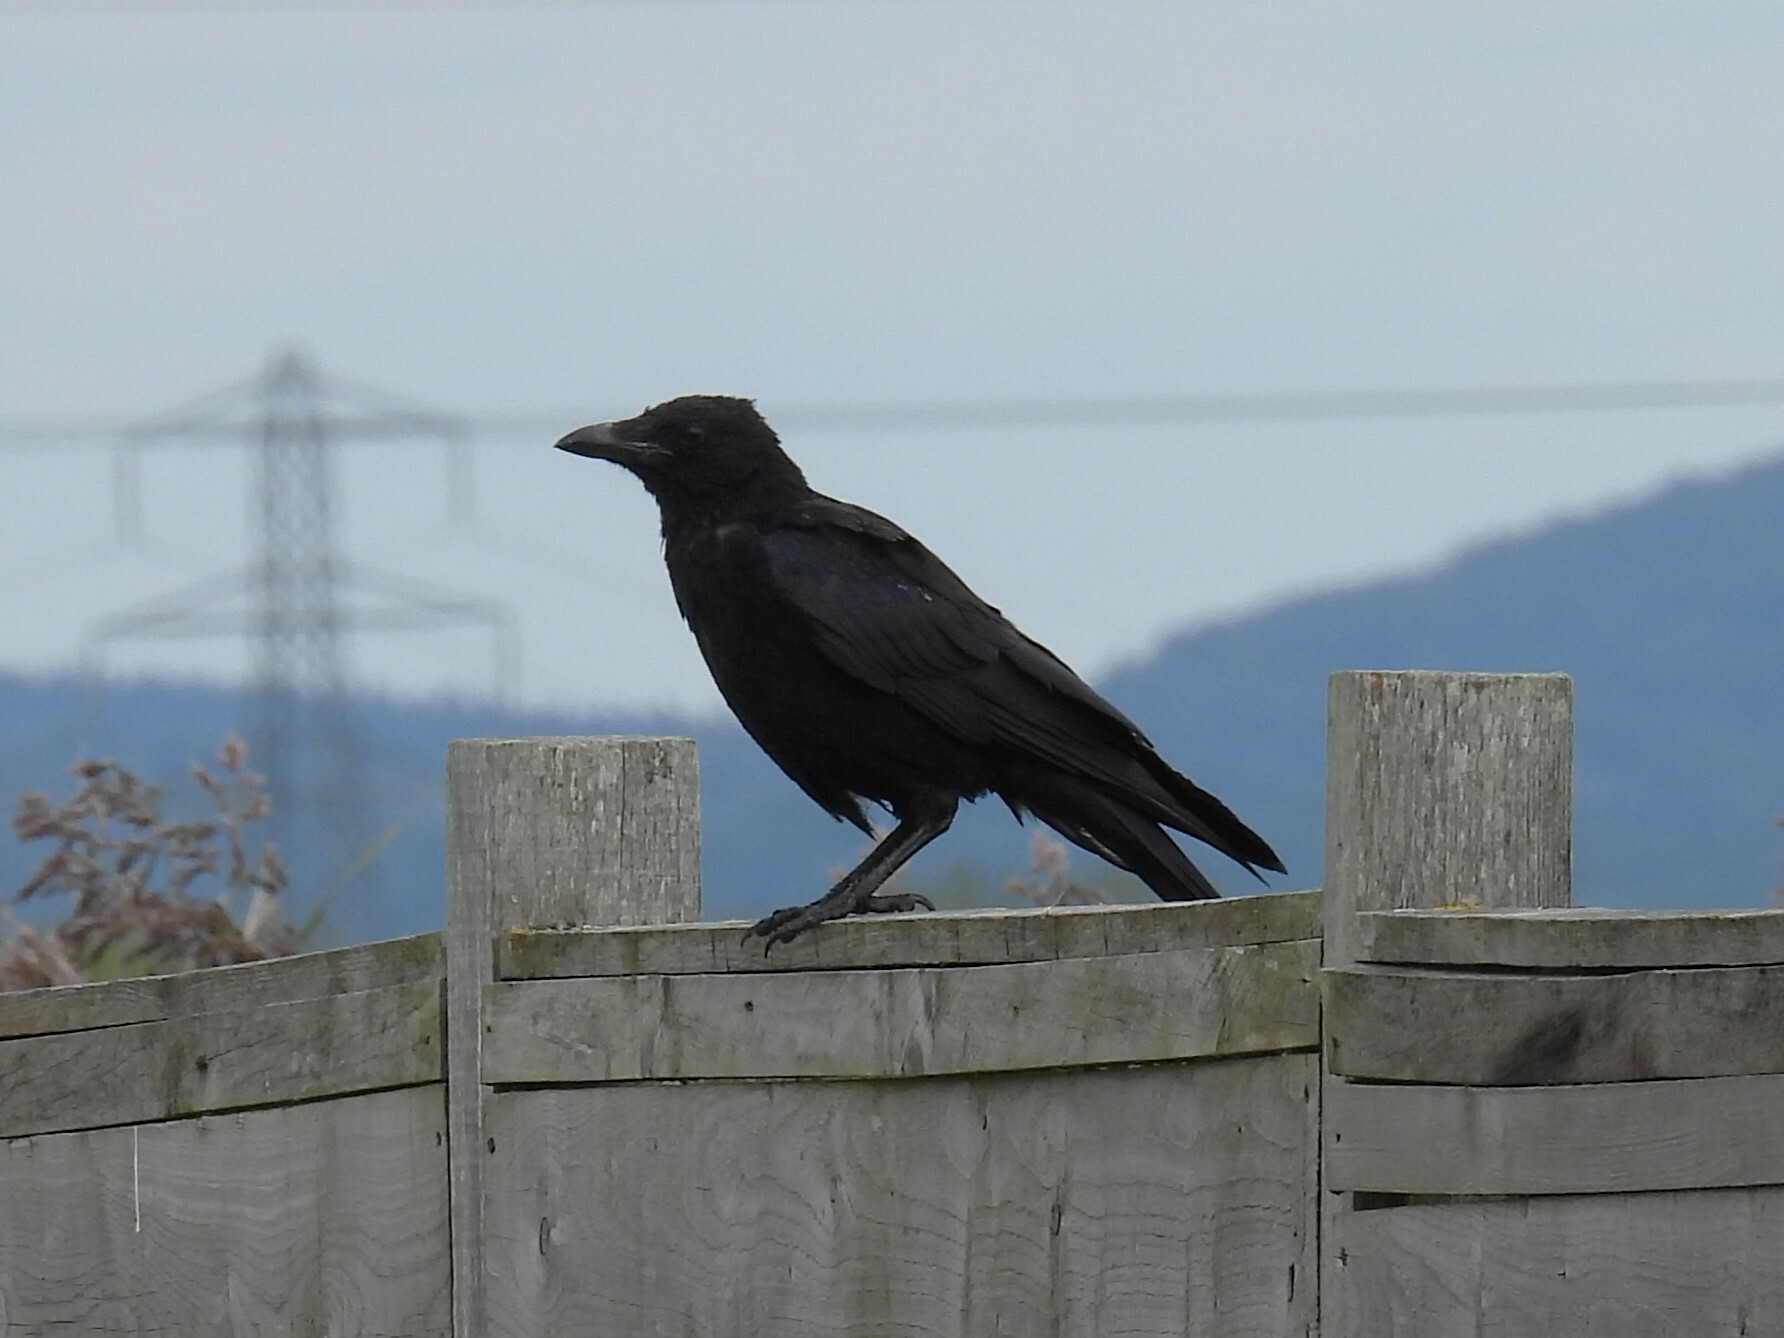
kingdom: Animalia
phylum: Chordata
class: Aves
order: Passeriformes
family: Corvidae
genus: Corvus
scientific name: Corvus corone
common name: Carrion crow
